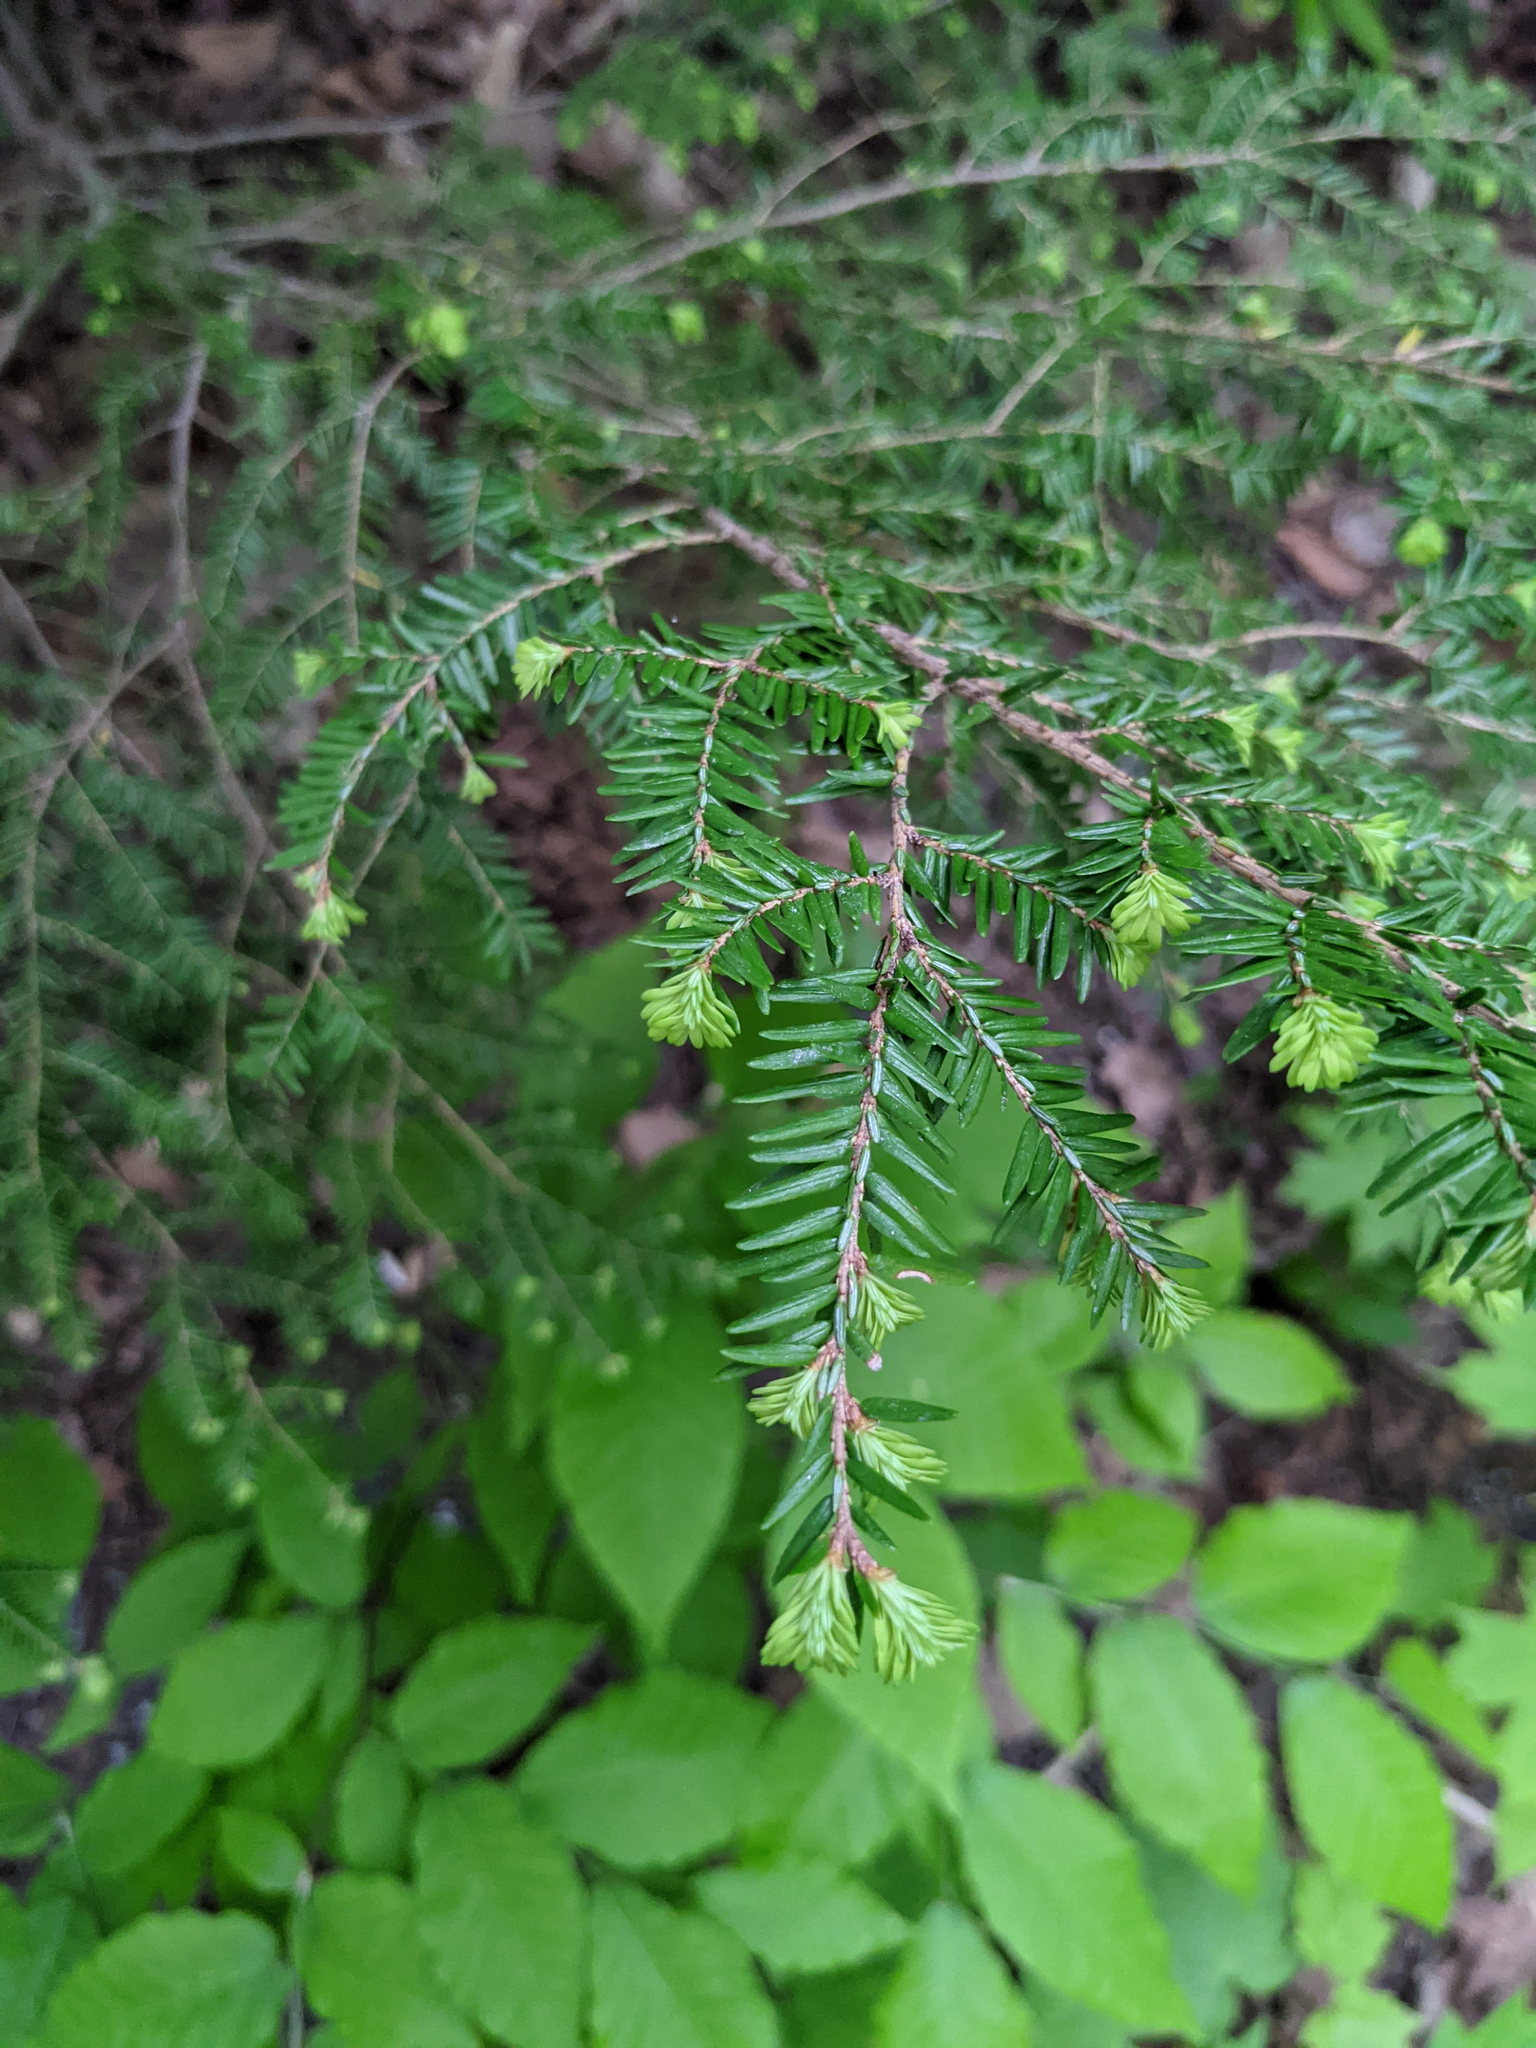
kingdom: Plantae
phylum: Tracheophyta
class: Pinopsida
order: Pinales
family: Pinaceae
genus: Tsuga
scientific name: Tsuga canadensis
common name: Eastern hemlock
